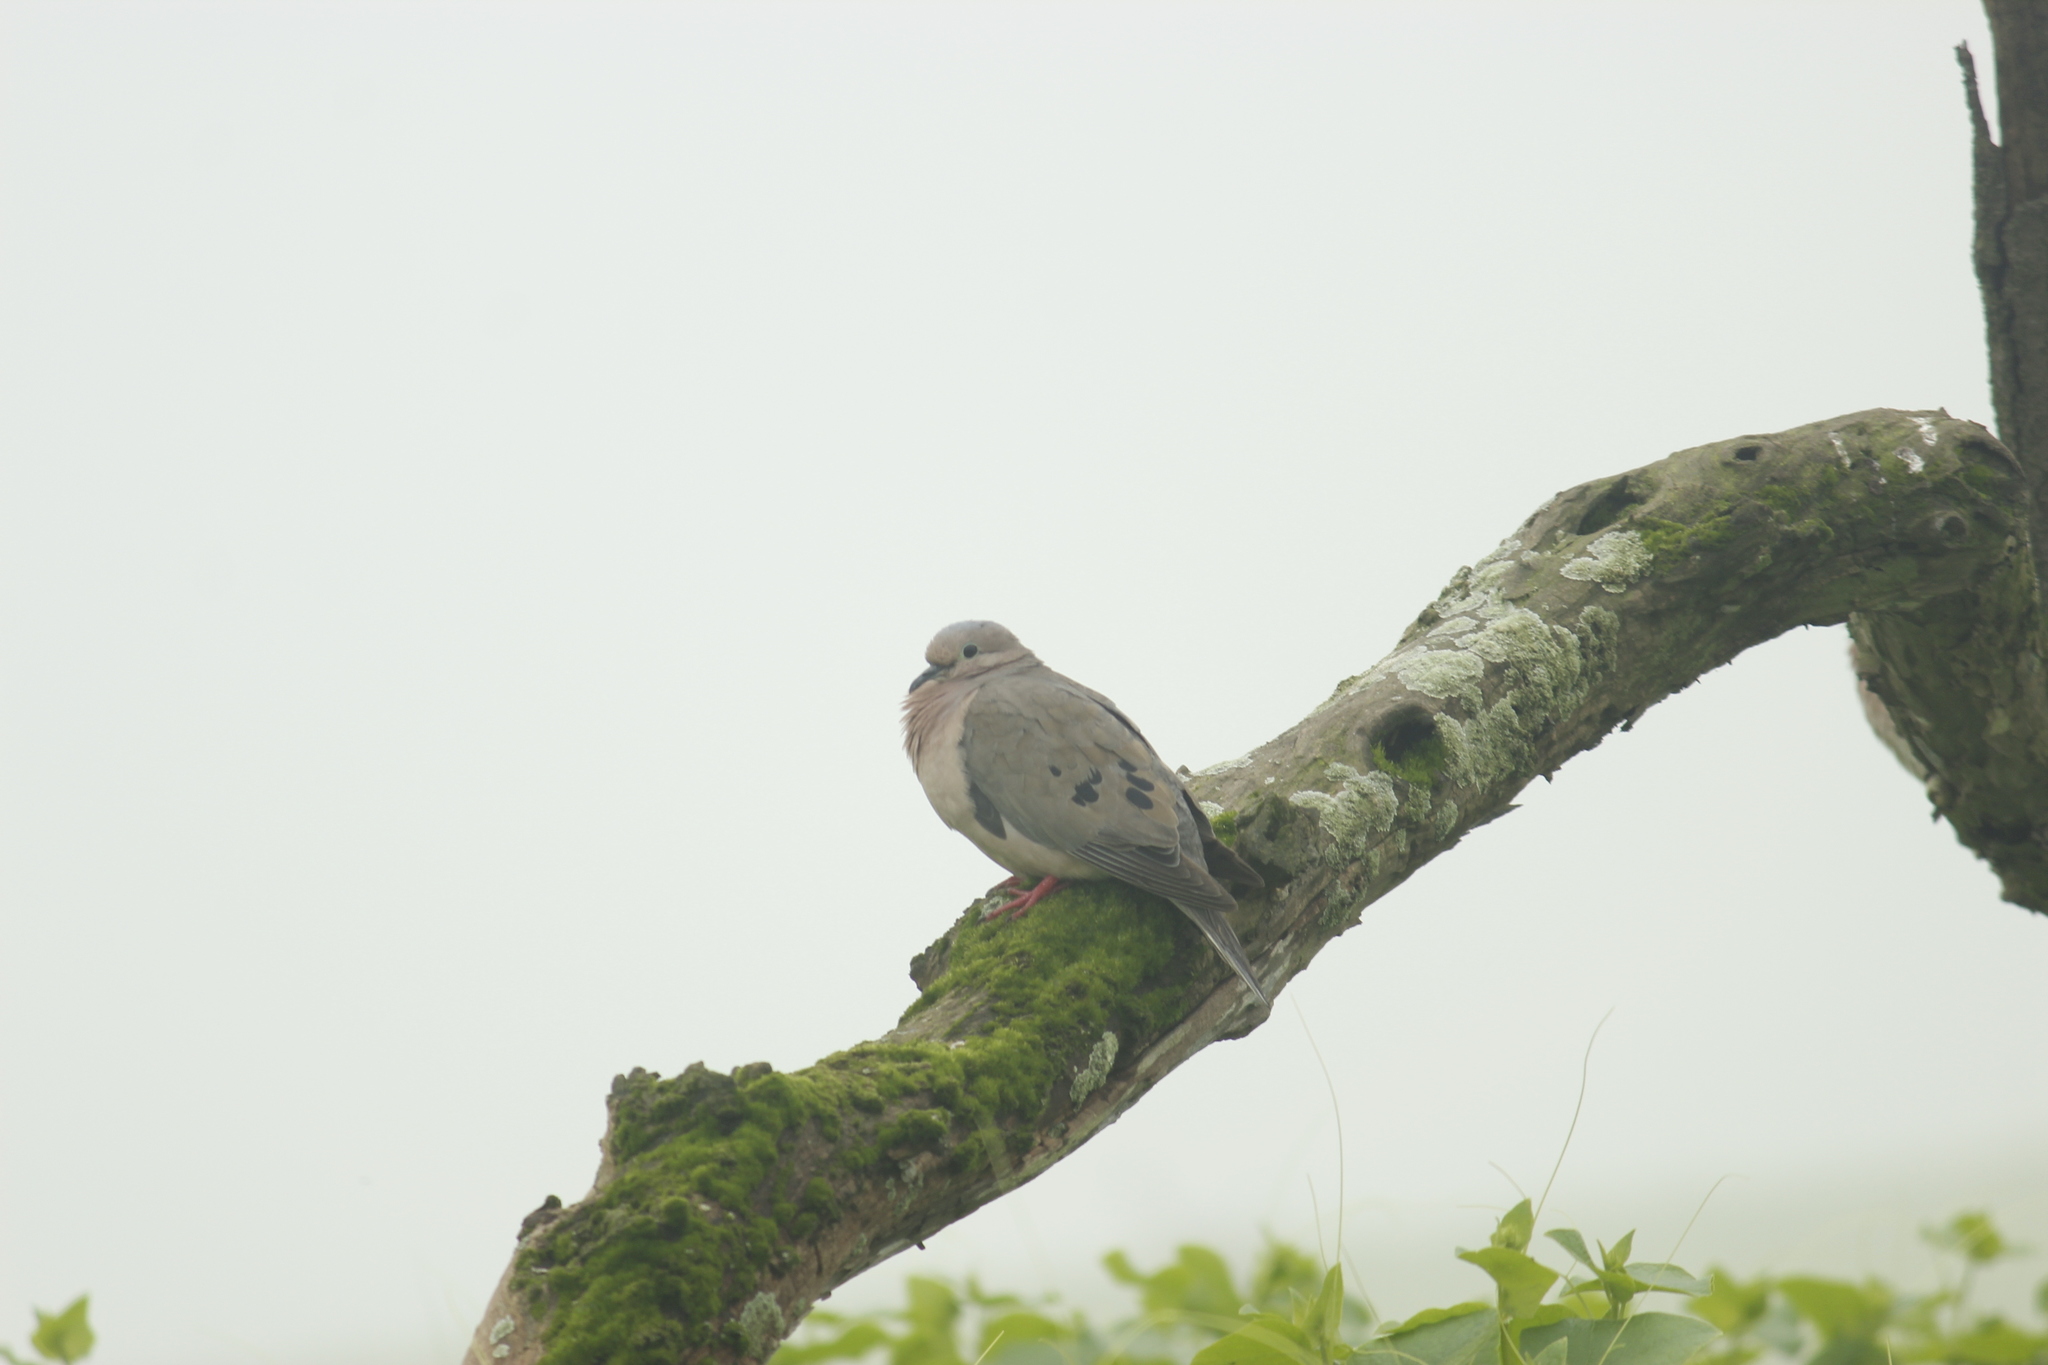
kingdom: Animalia
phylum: Chordata
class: Aves
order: Columbiformes
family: Columbidae
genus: Zenaida
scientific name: Zenaida auriculata
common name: Eared dove
